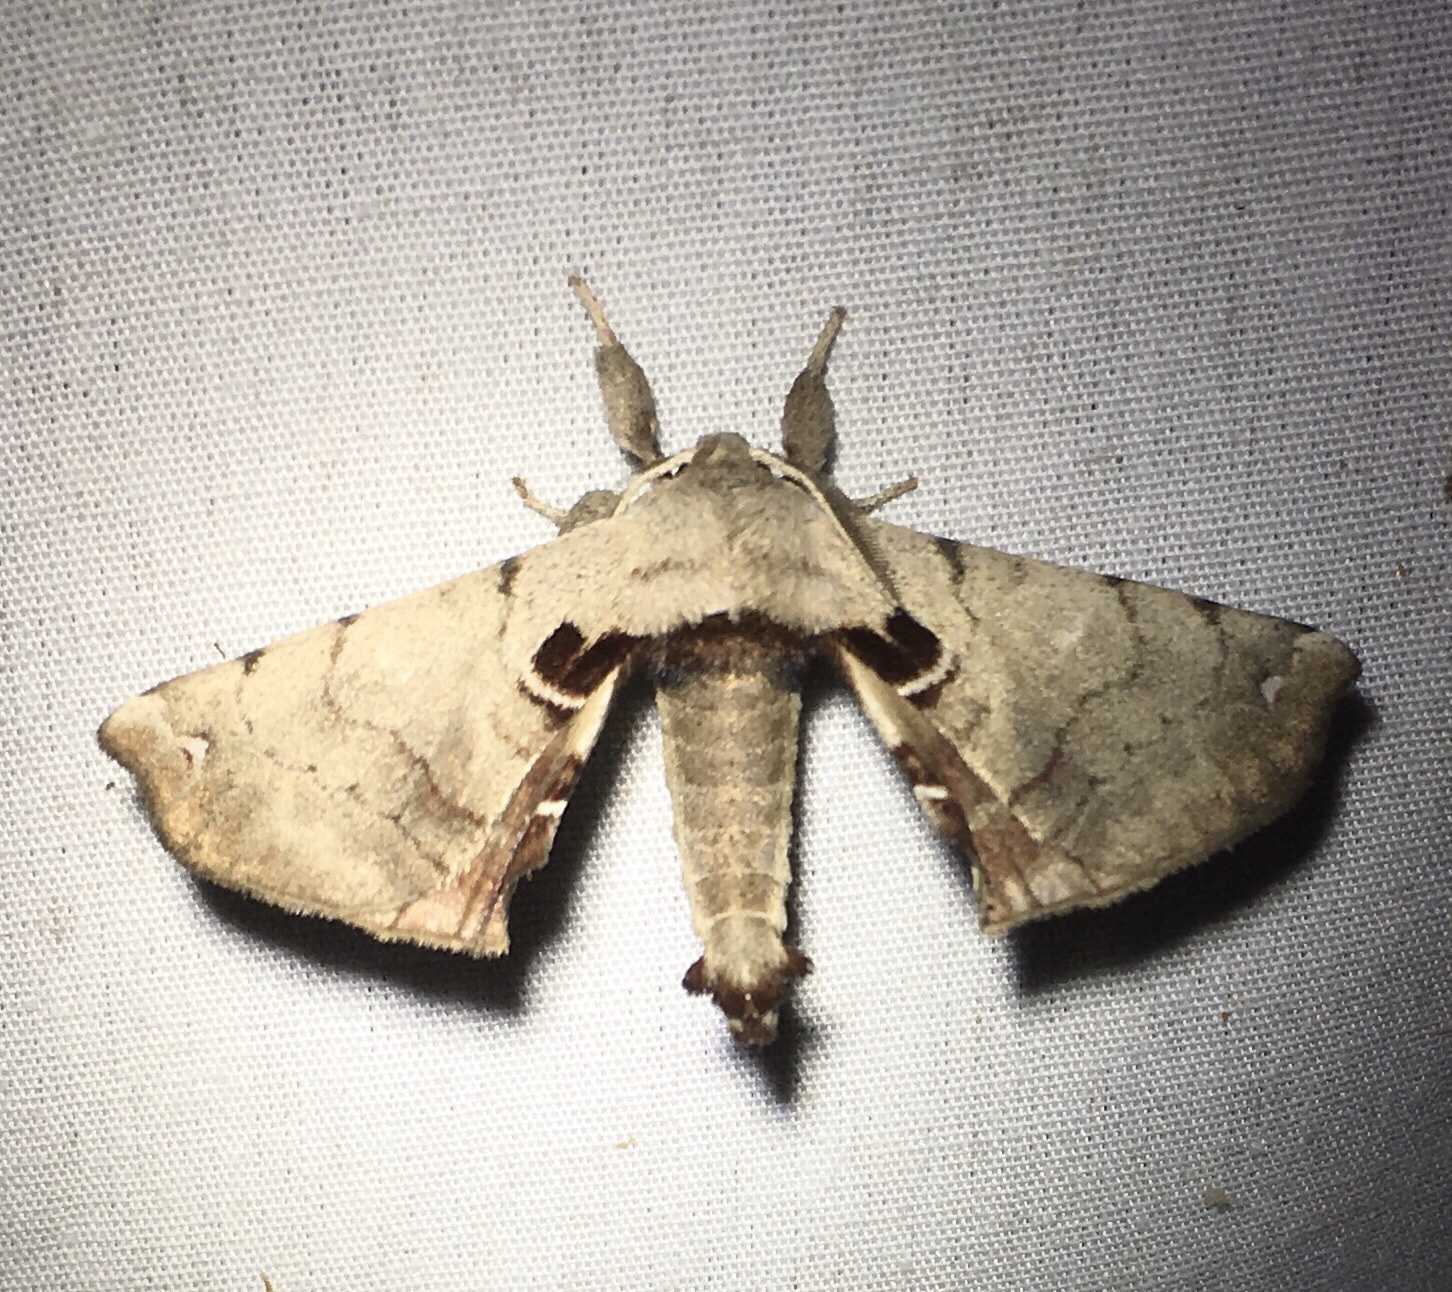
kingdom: Animalia
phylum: Arthropoda
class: Insecta
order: Lepidoptera
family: Apatelodidae
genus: Hygrochroa
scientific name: Hygrochroa Apatelodes torrefacta
